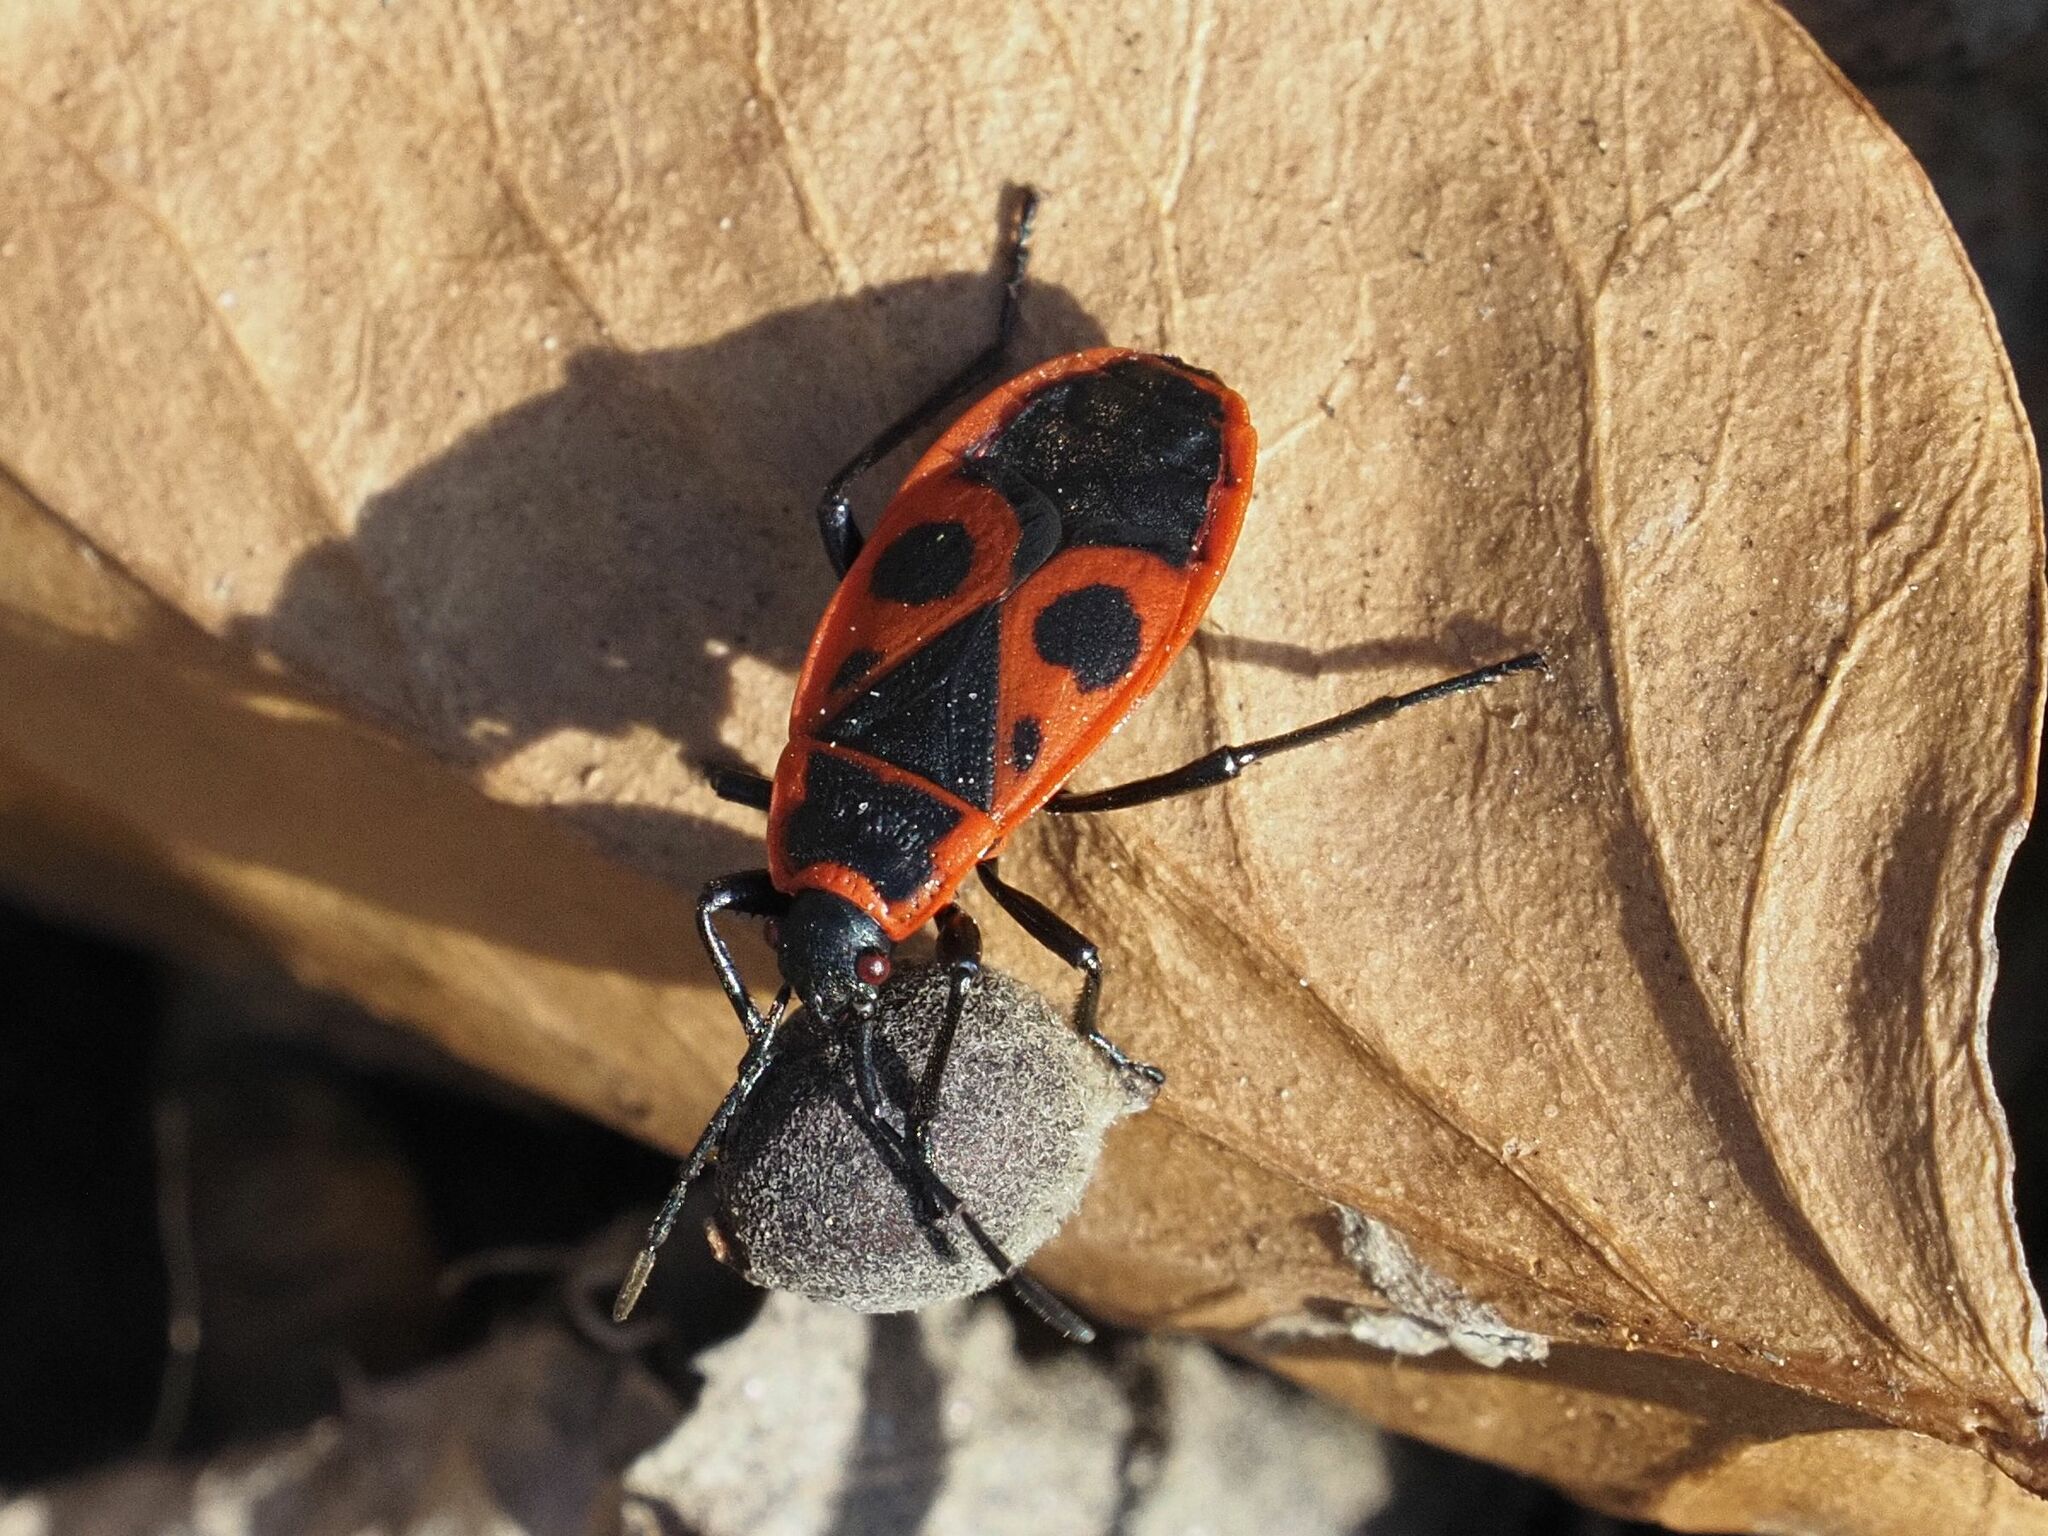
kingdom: Animalia
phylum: Arthropoda
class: Insecta
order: Hemiptera
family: Pyrrhocoridae
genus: Pyrrhocoris
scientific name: Pyrrhocoris apterus
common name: Firebug
